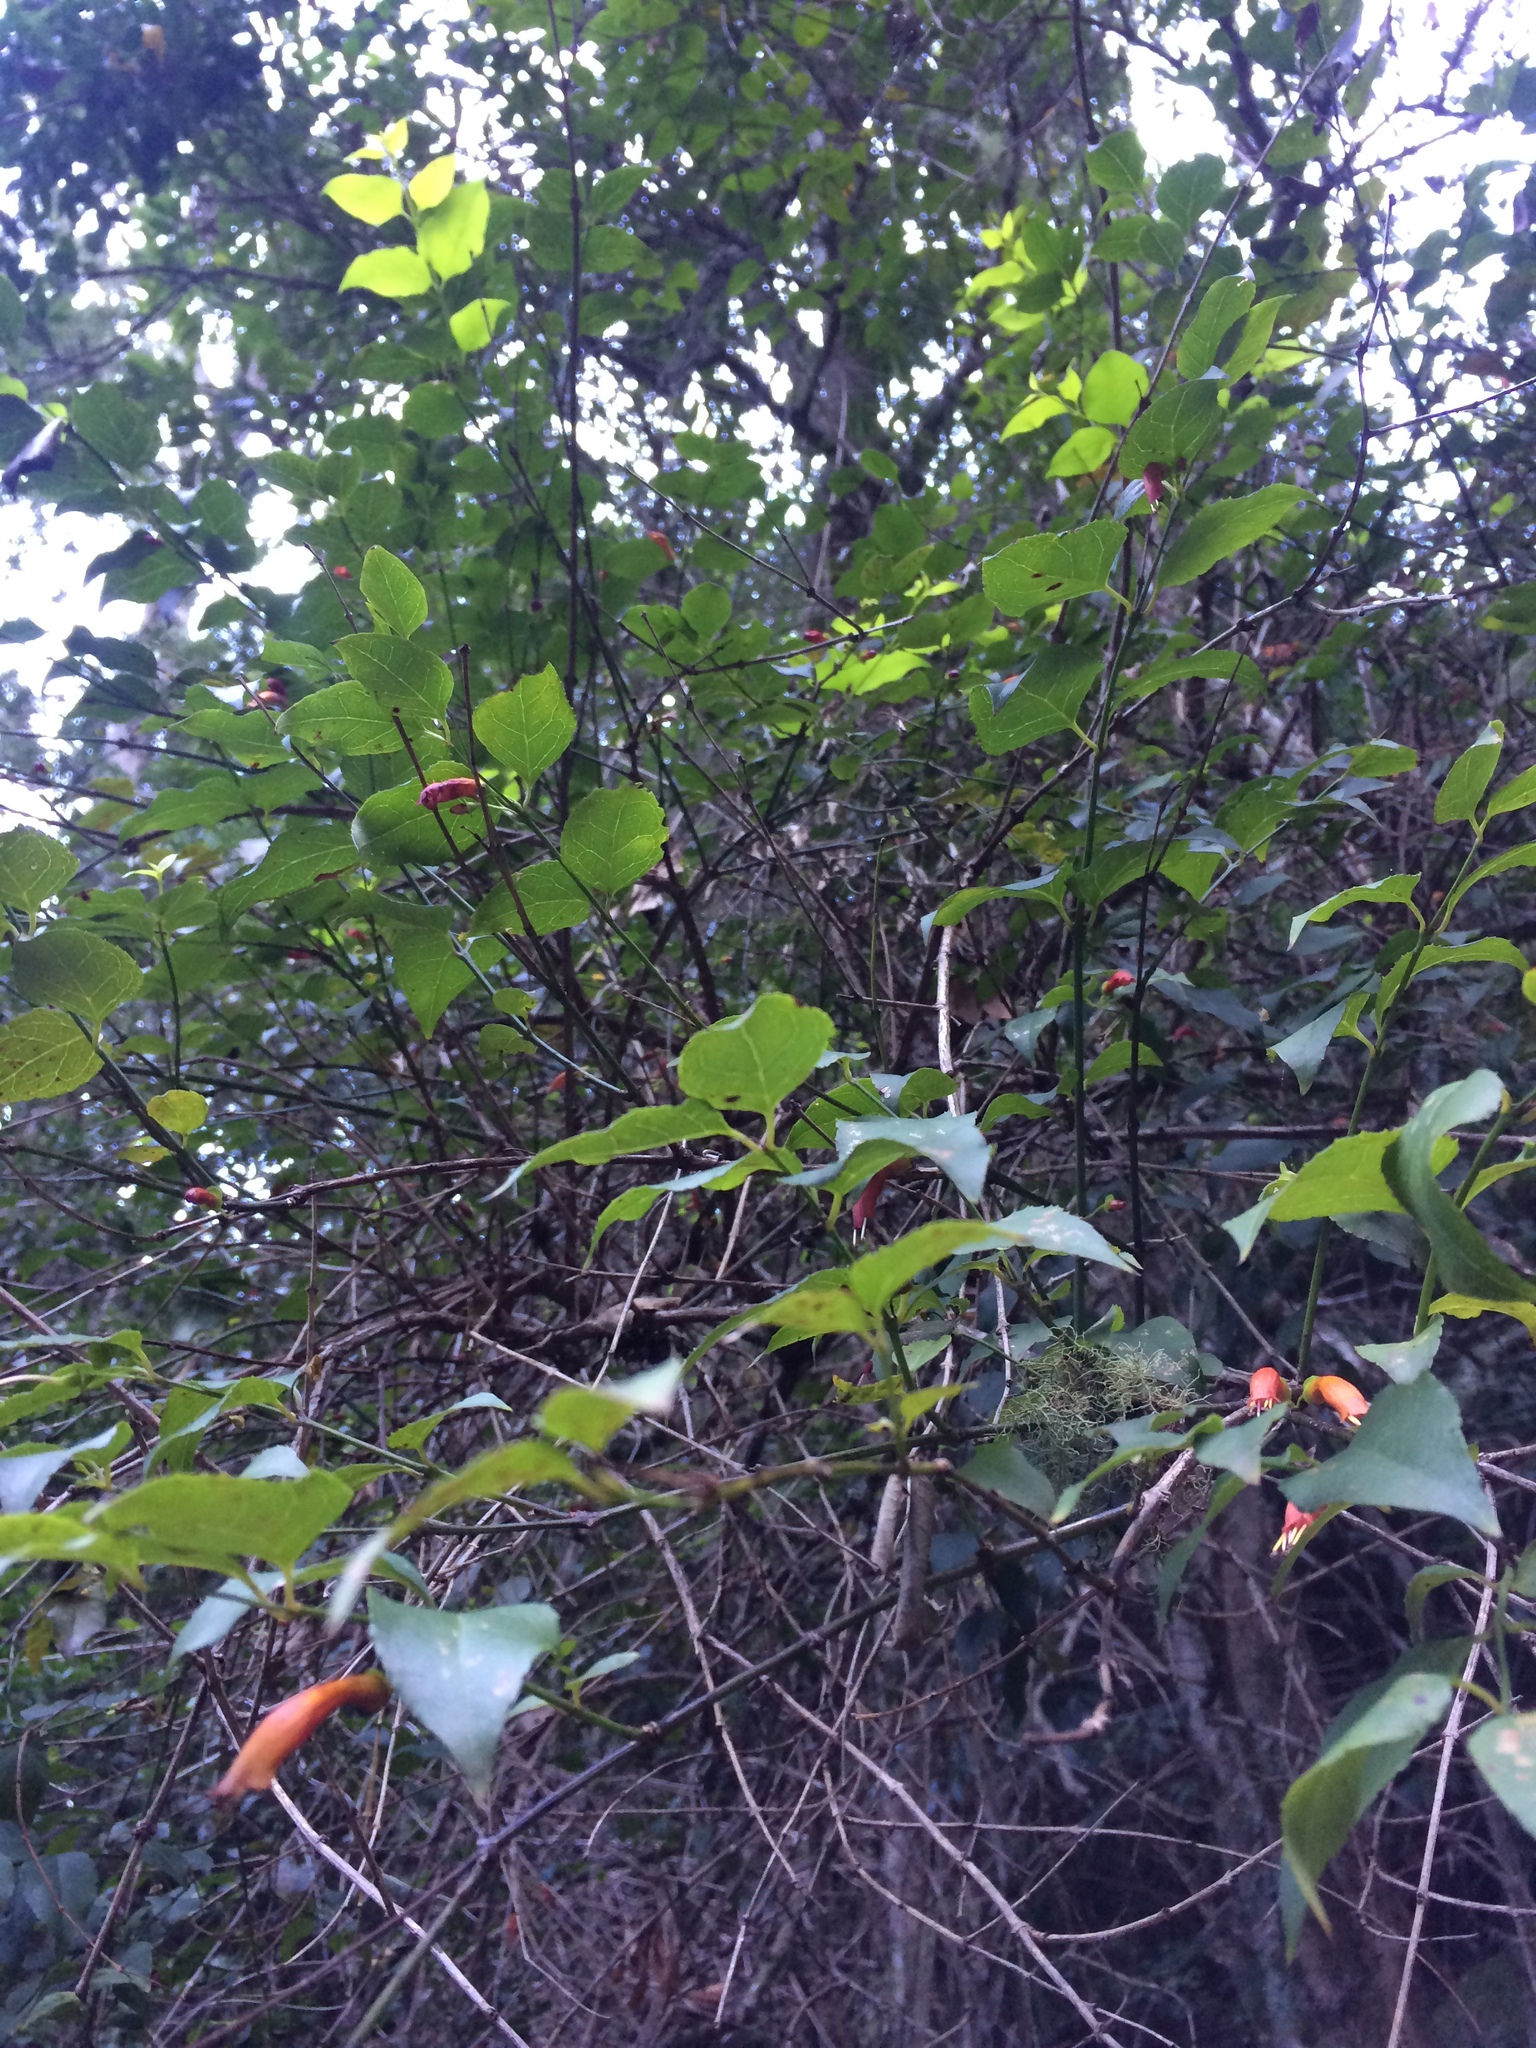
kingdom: Plantae
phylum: Tracheophyta
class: Magnoliopsida
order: Lamiales
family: Stilbaceae
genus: Halleria
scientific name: Halleria lucida
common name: Tree fuschia
